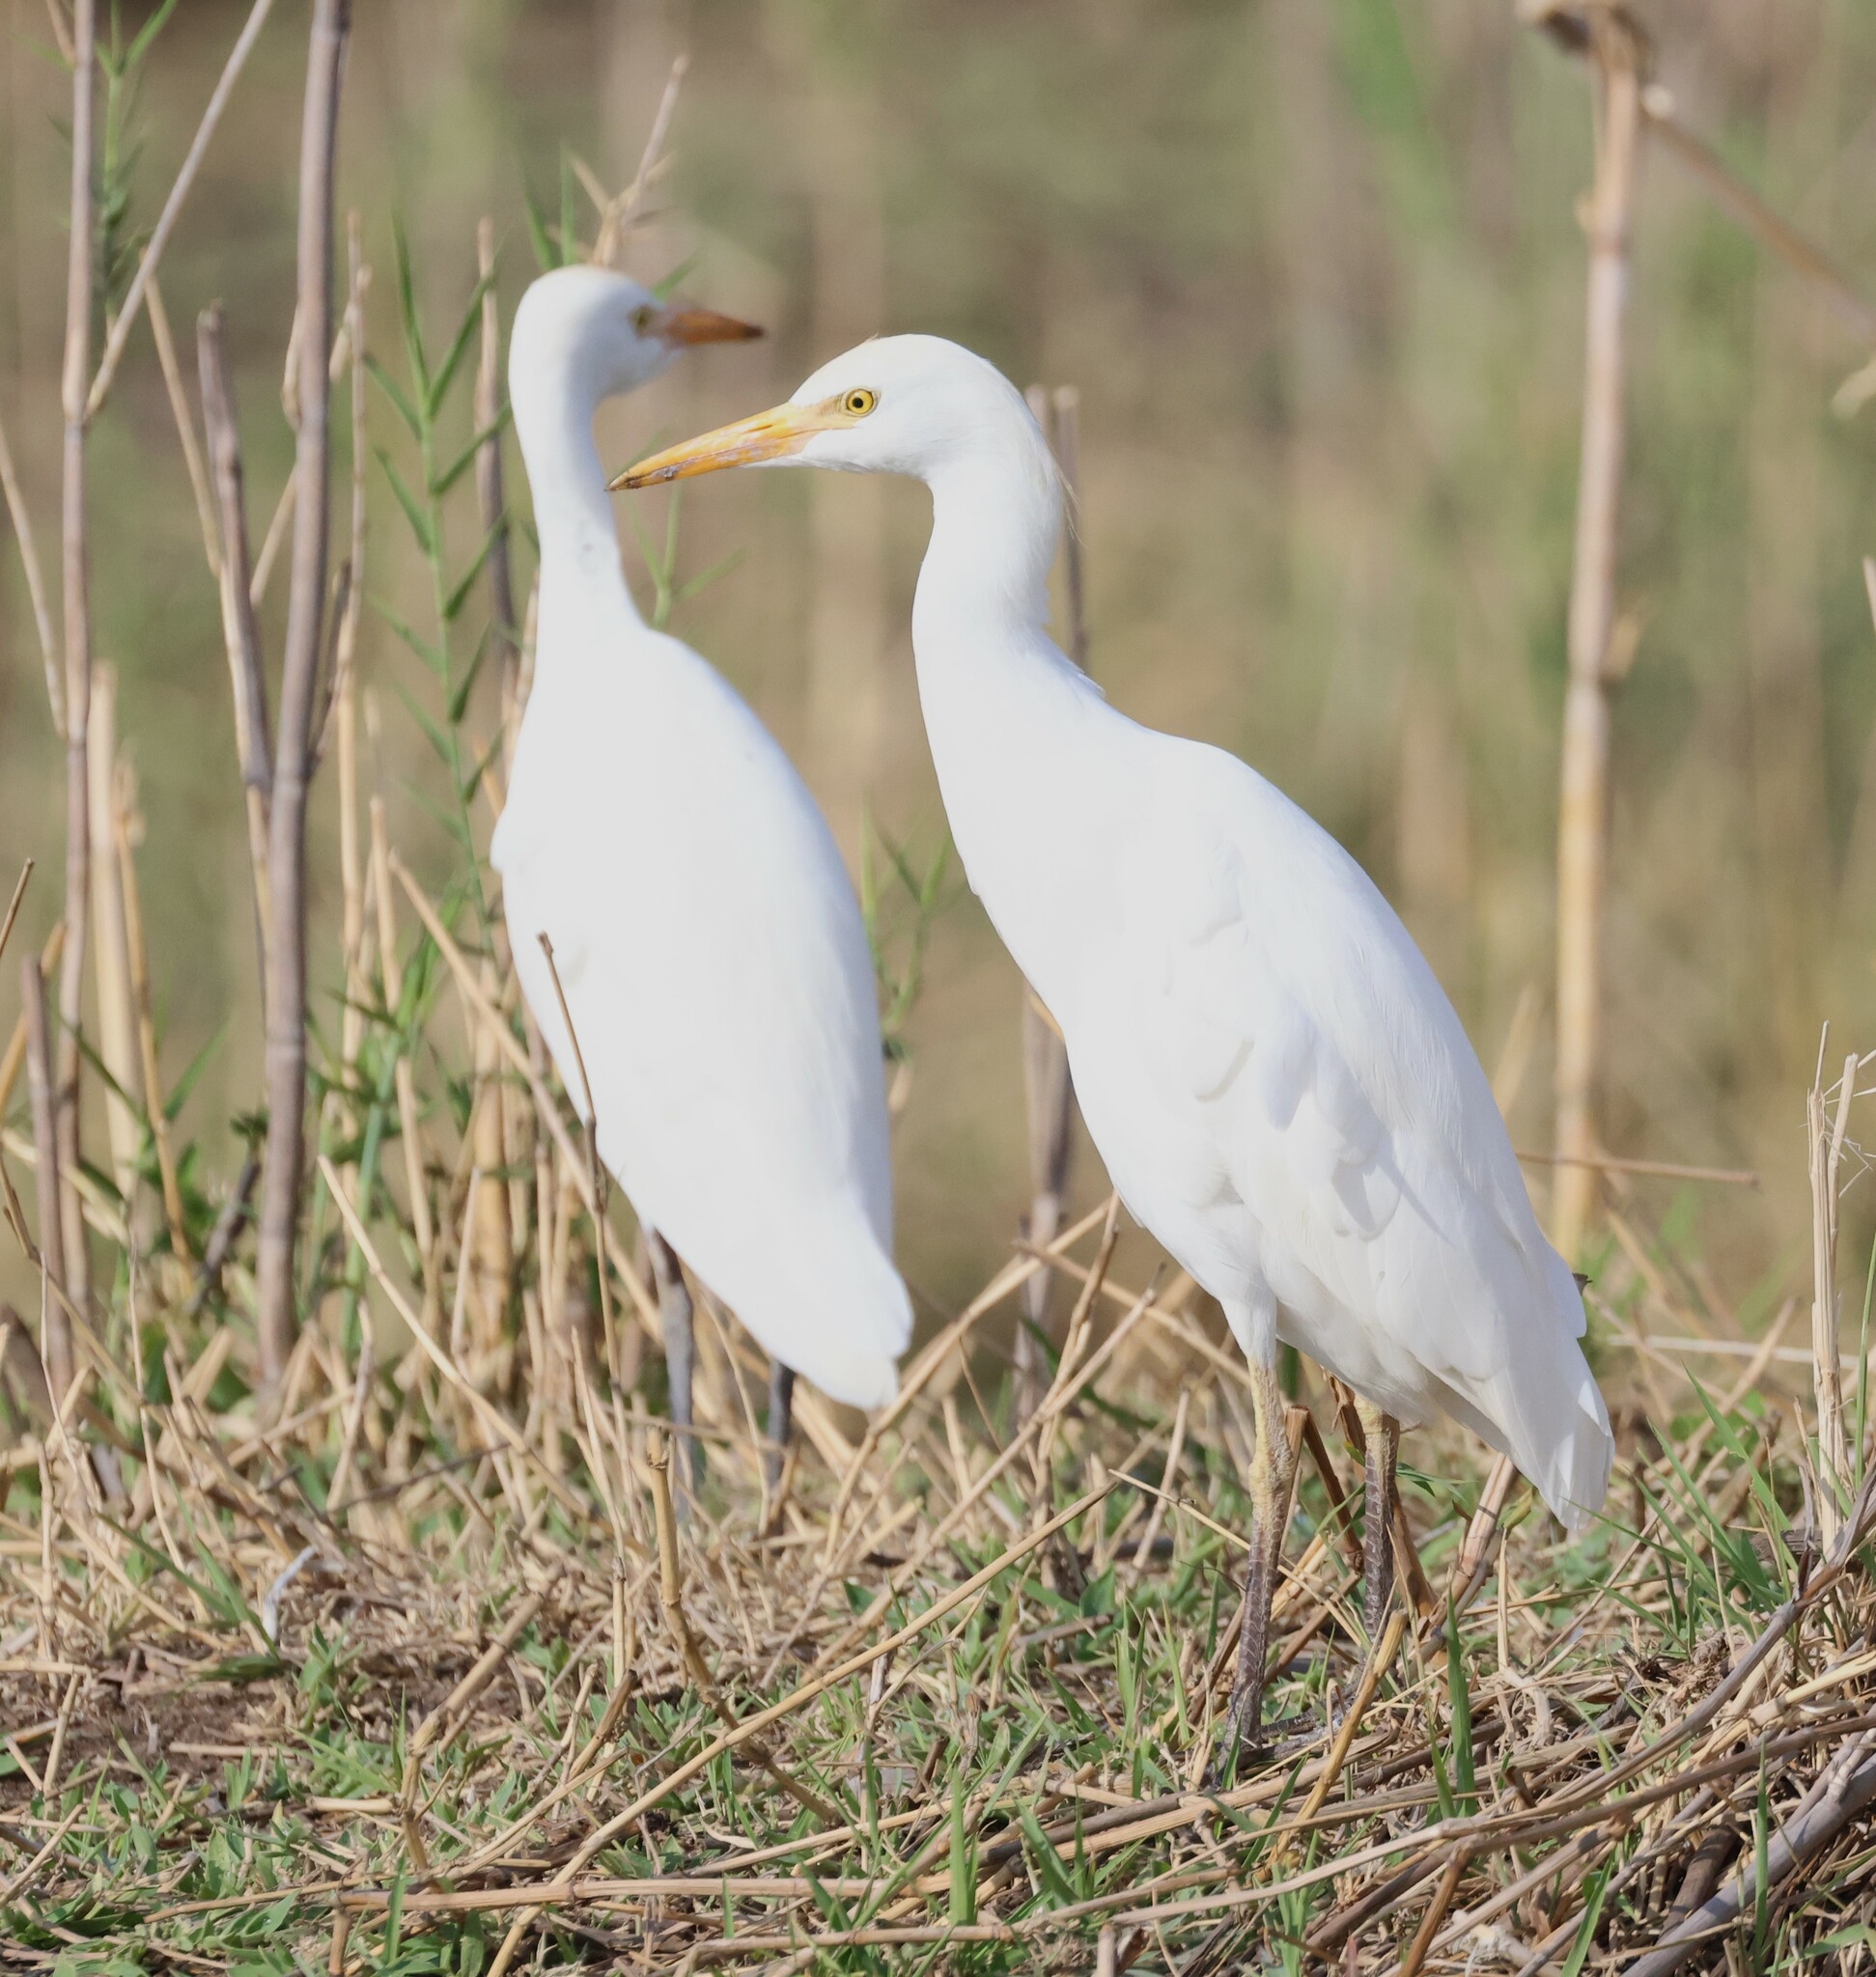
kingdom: Animalia
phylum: Chordata
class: Aves
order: Pelecaniformes
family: Ardeidae
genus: Bubulcus
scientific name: Bubulcus ibis
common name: Cattle egret
